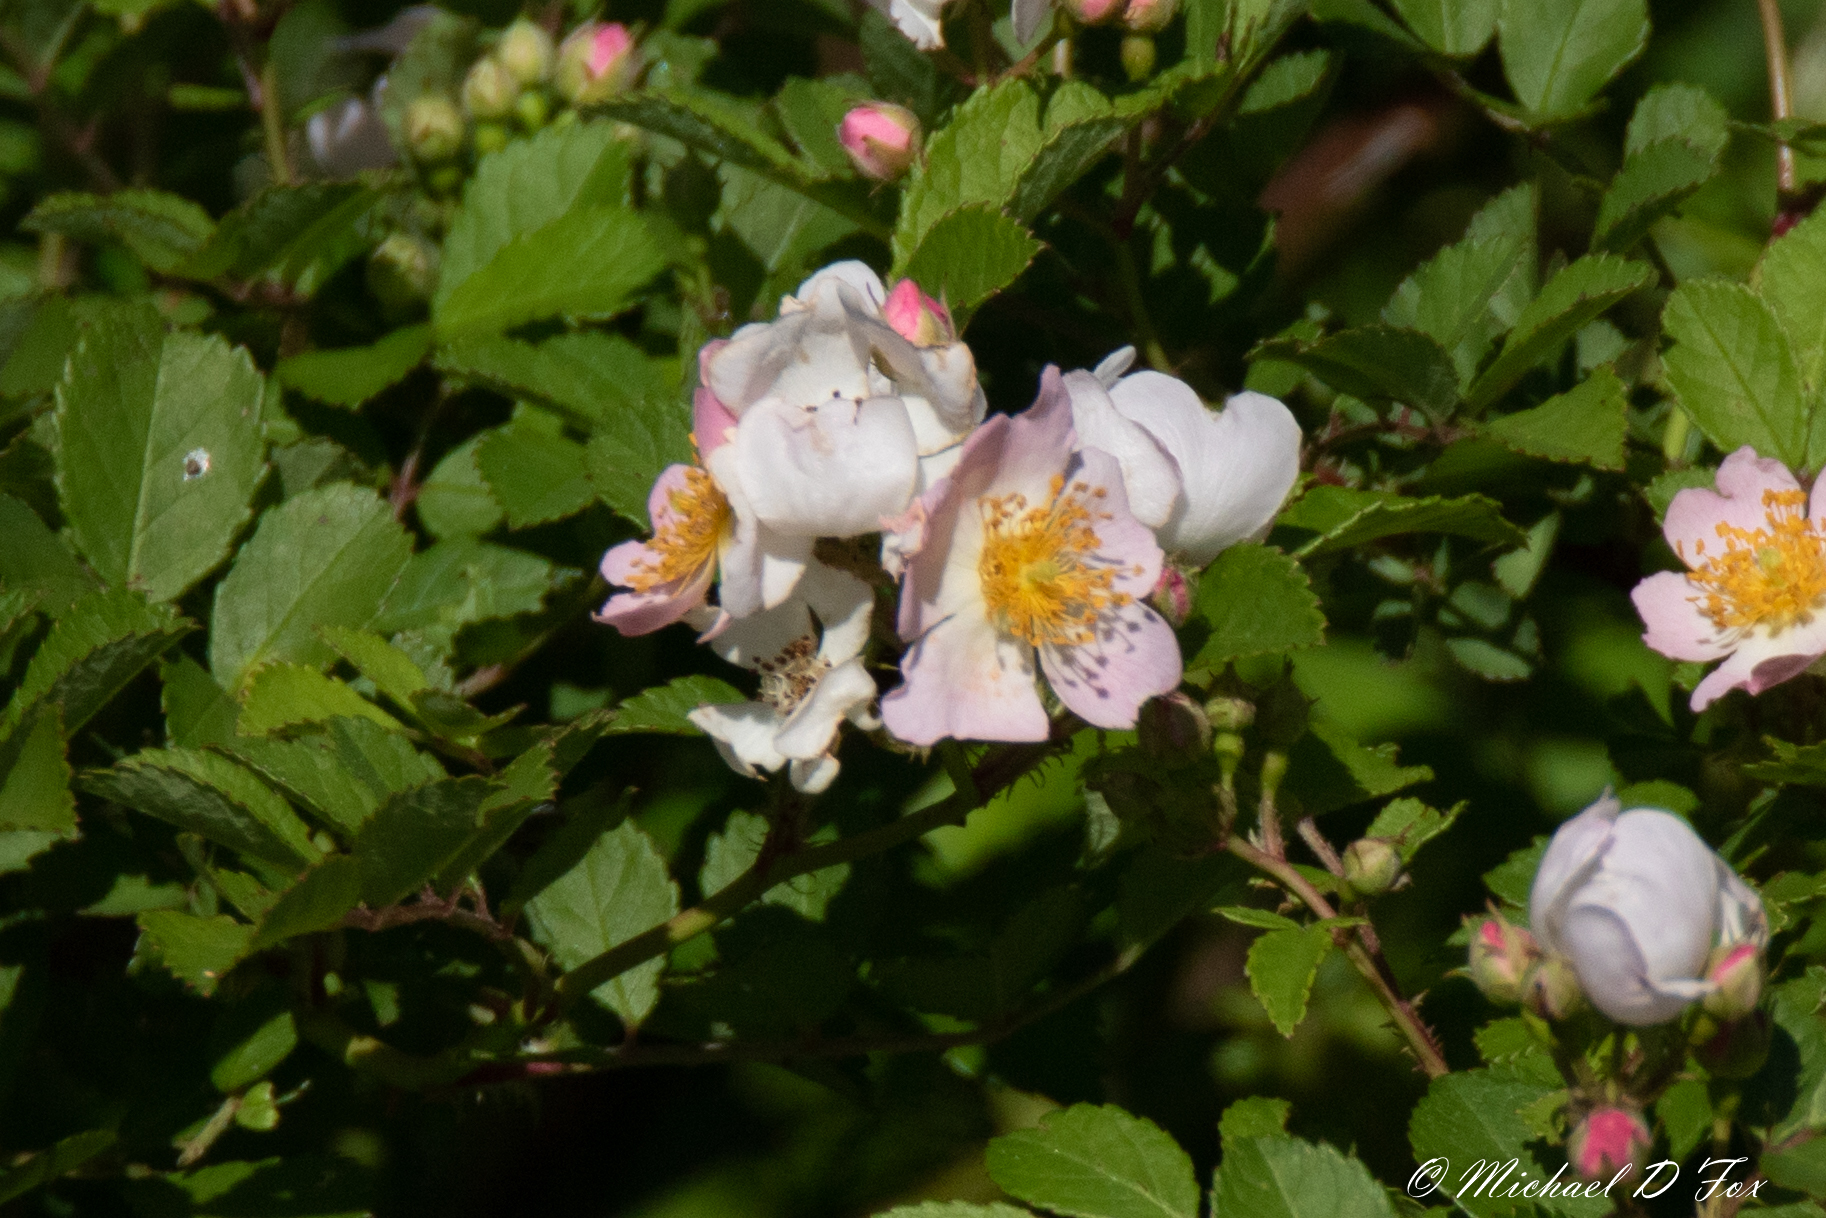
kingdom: Plantae
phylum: Tracheophyta
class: Magnoliopsida
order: Rosales
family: Rosaceae
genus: Rosa
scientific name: Rosa multiflora
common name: Multiflora rose
